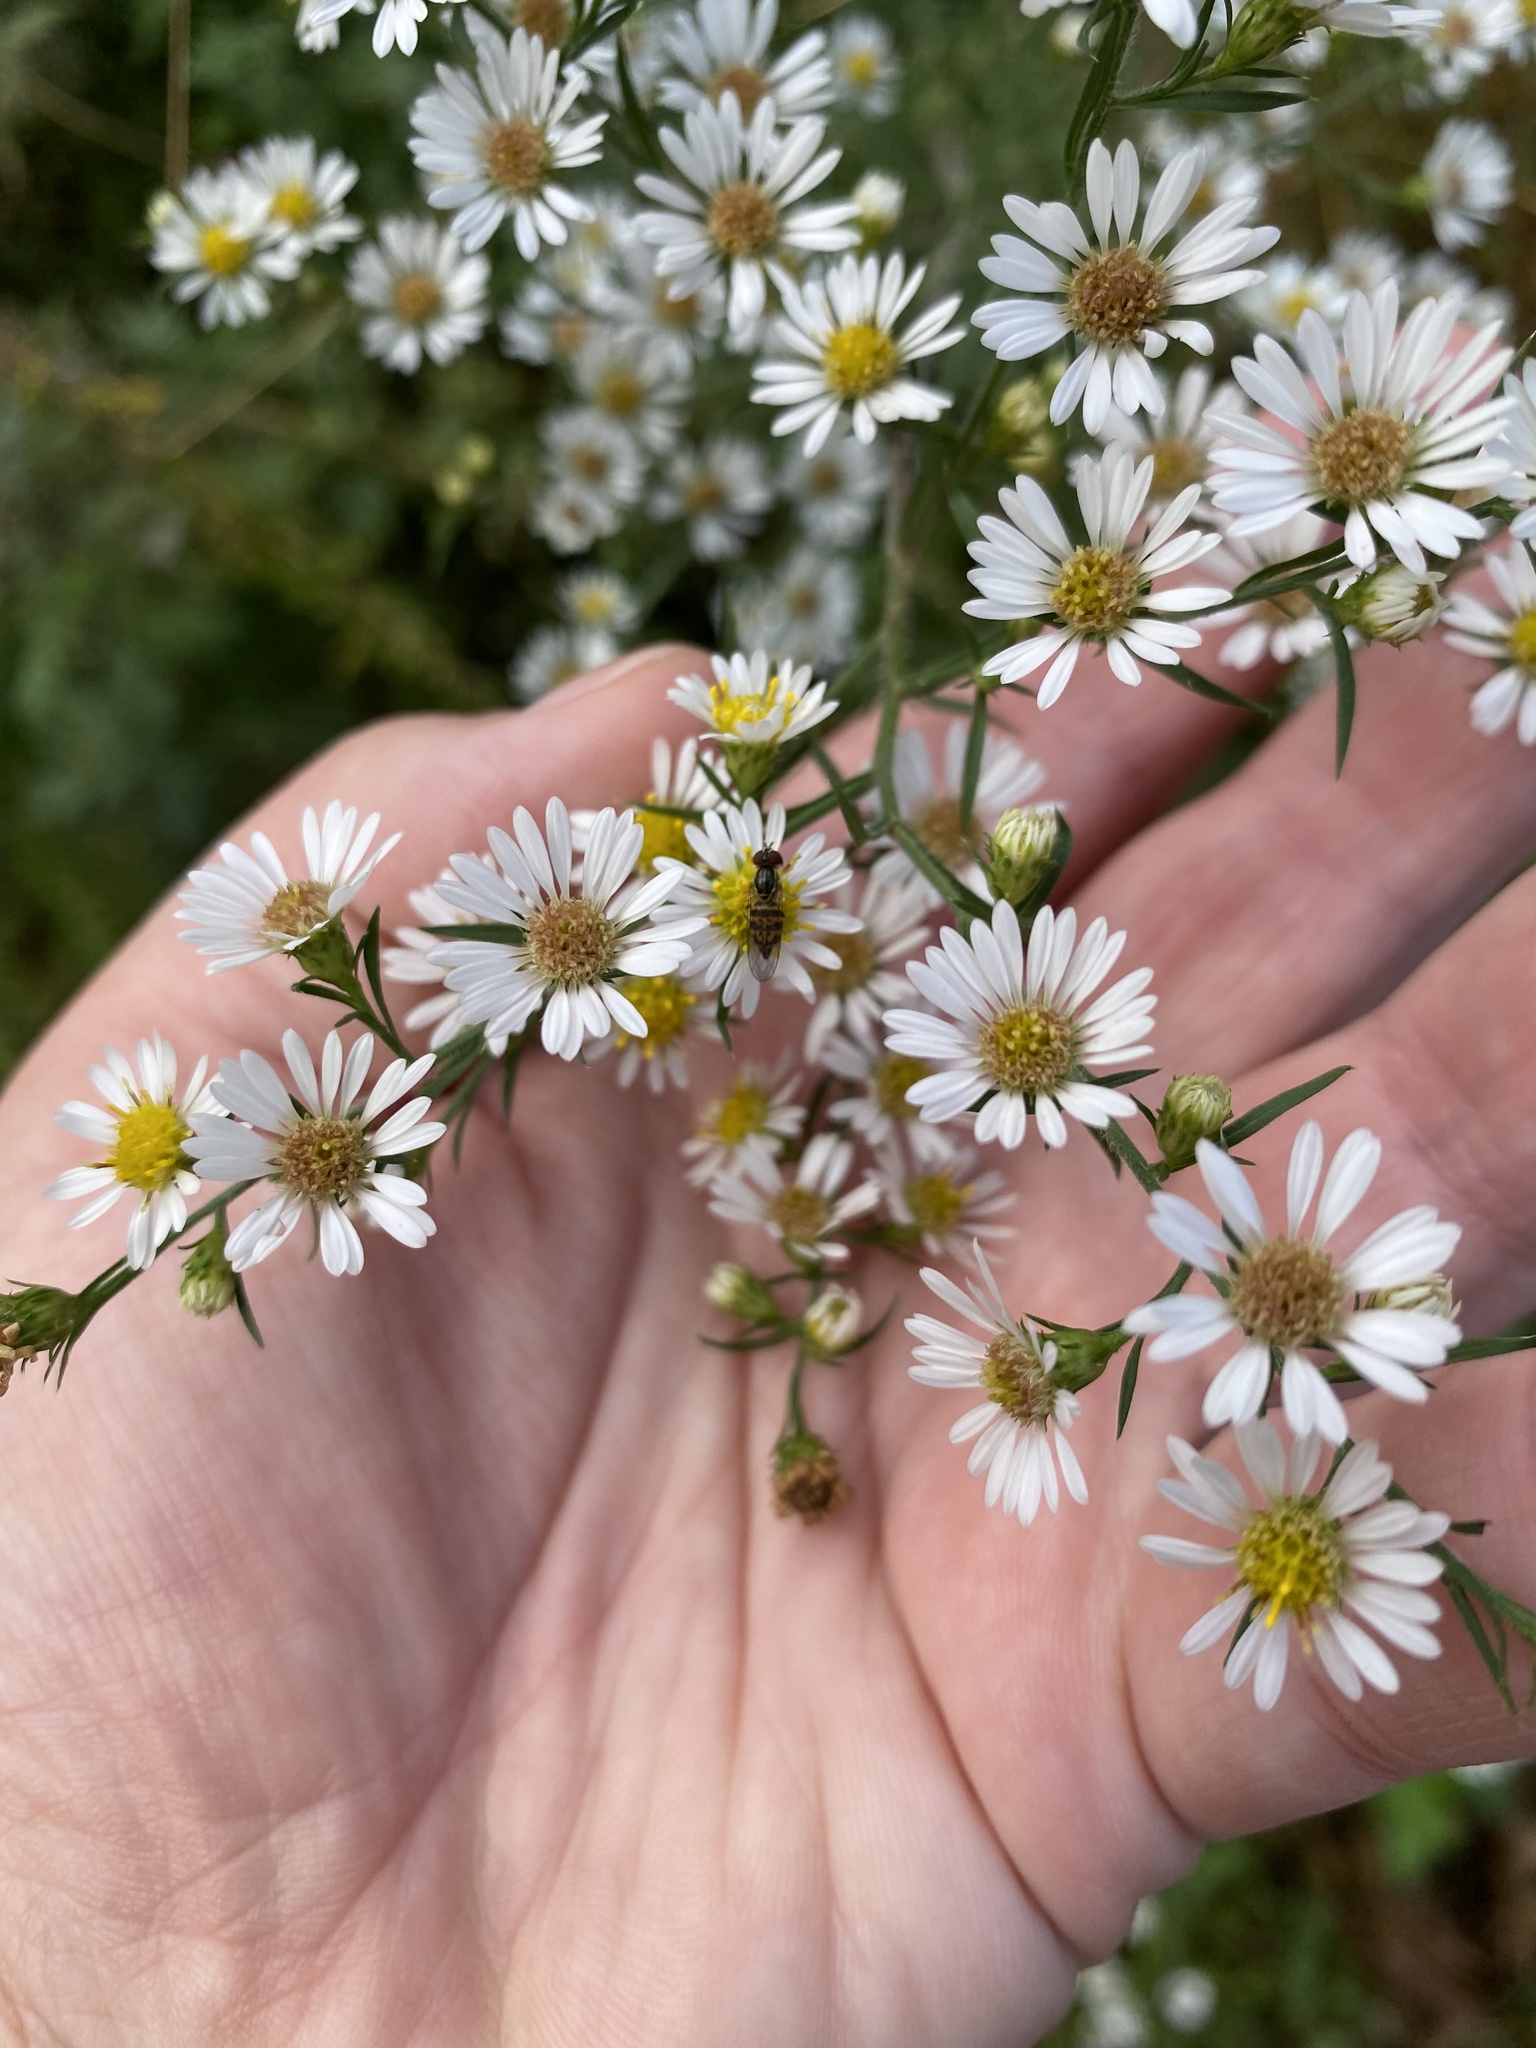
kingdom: Animalia
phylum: Arthropoda
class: Insecta
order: Diptera
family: Syrphidae
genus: Toxomerus
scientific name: Toxomerus geminatus
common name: Eastern calligrapher
